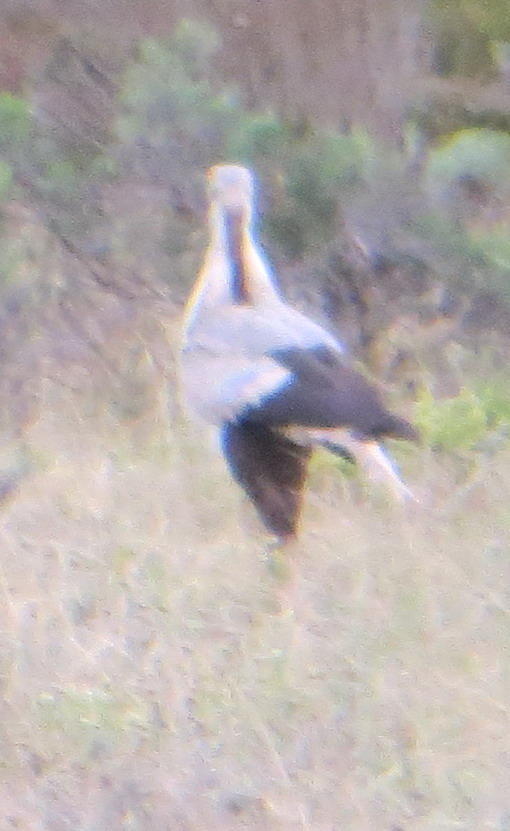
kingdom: Animalia
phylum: Chordata
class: Aves
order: Accipitriformes
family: Sagittariidae
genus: Sagittarius
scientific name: Sagittarius serpentarius
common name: Secretarybird
